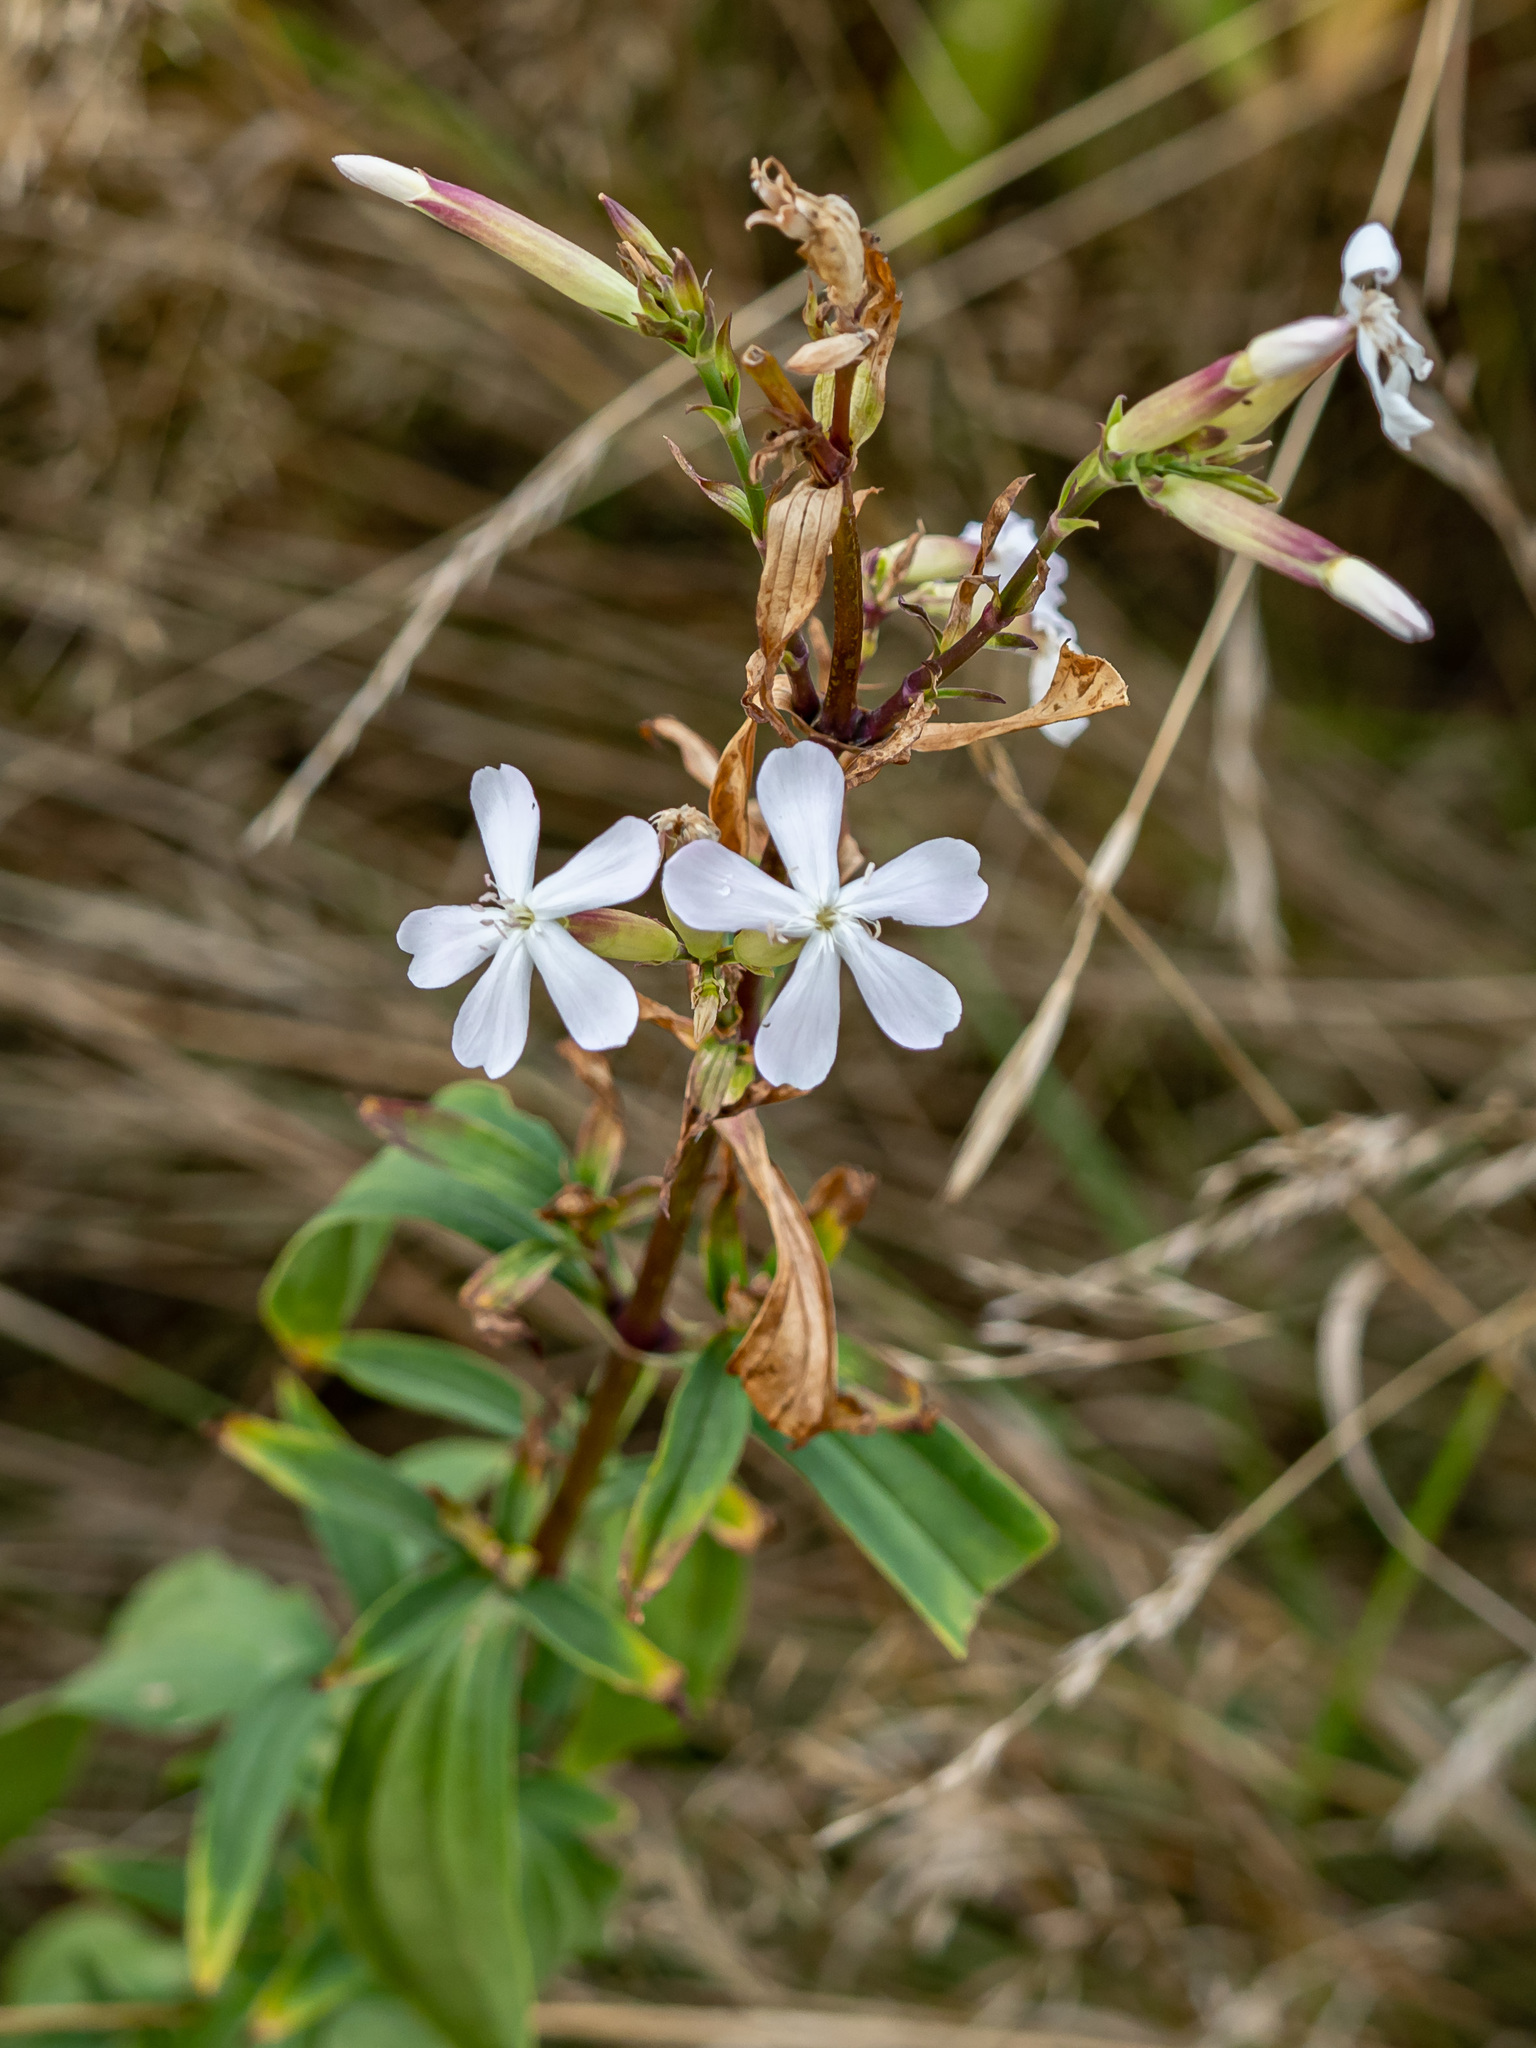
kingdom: Plantae
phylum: Tracheophyta
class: Magnoliopsida
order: Caryophyllales
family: Caryophyllaceae
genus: Saponaria
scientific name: Saponaria officinalis
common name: Soapwort
